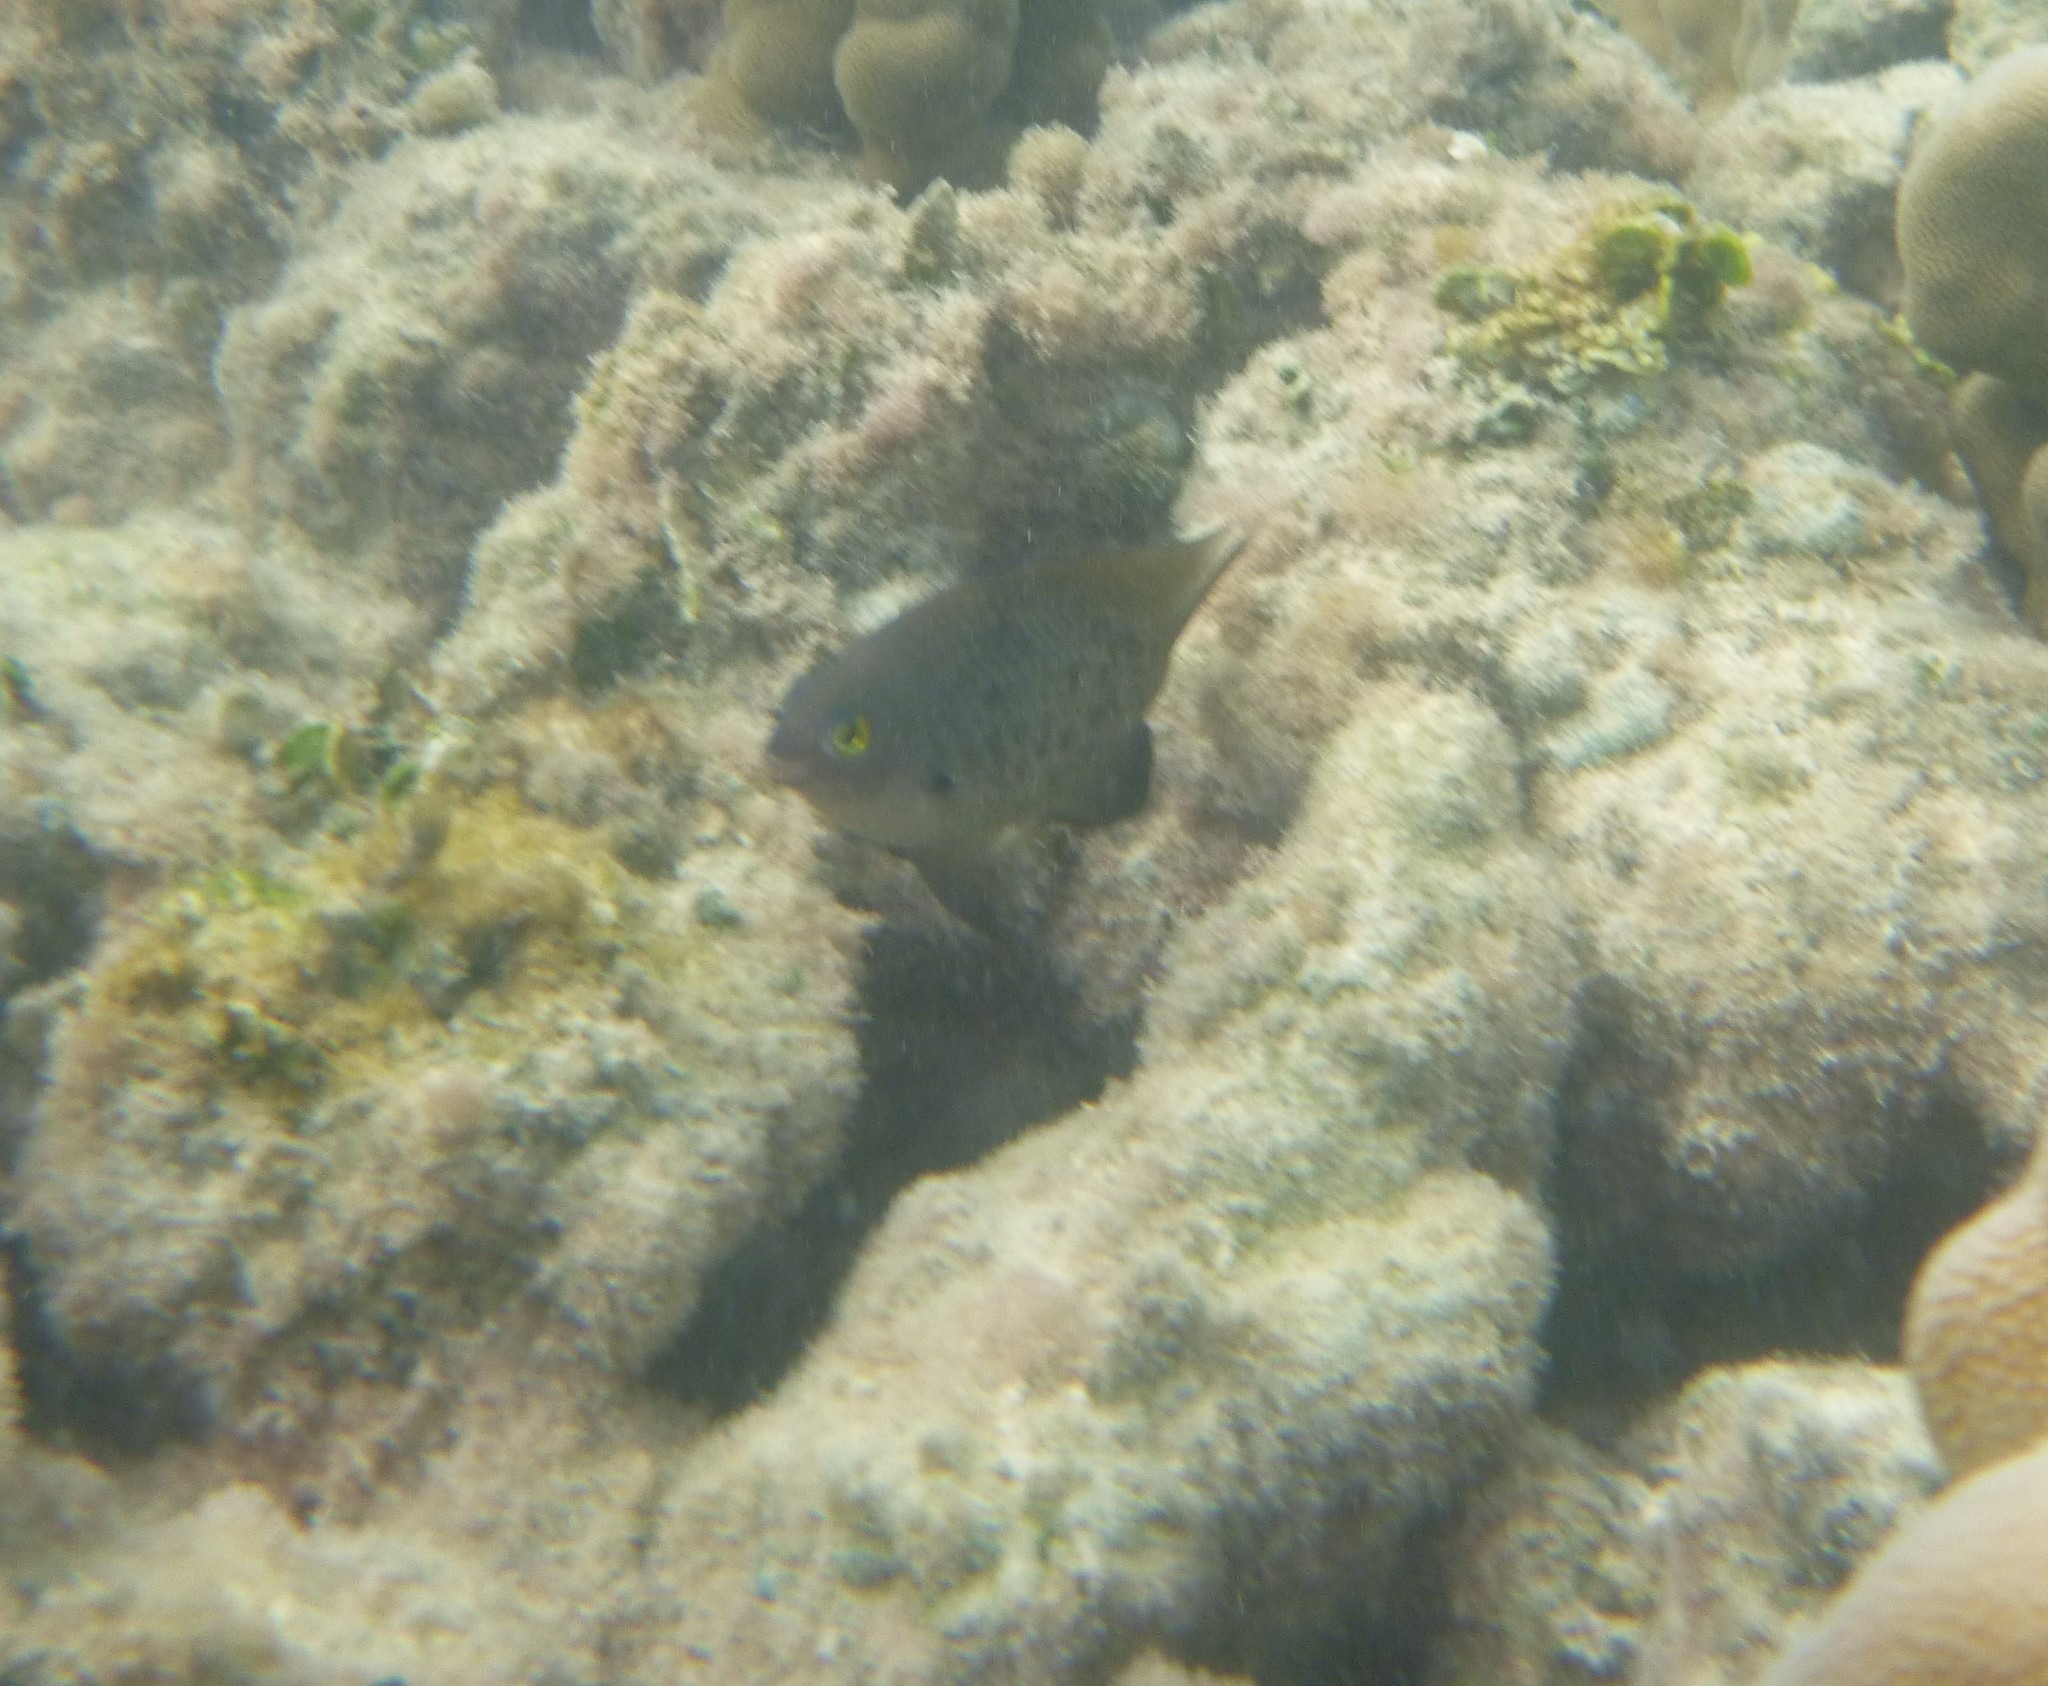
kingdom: Animalia
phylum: Chordata
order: Perciformes
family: Pomacentridae
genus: Stegastes
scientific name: Stegastes fasciolatus
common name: Pacific gregory
